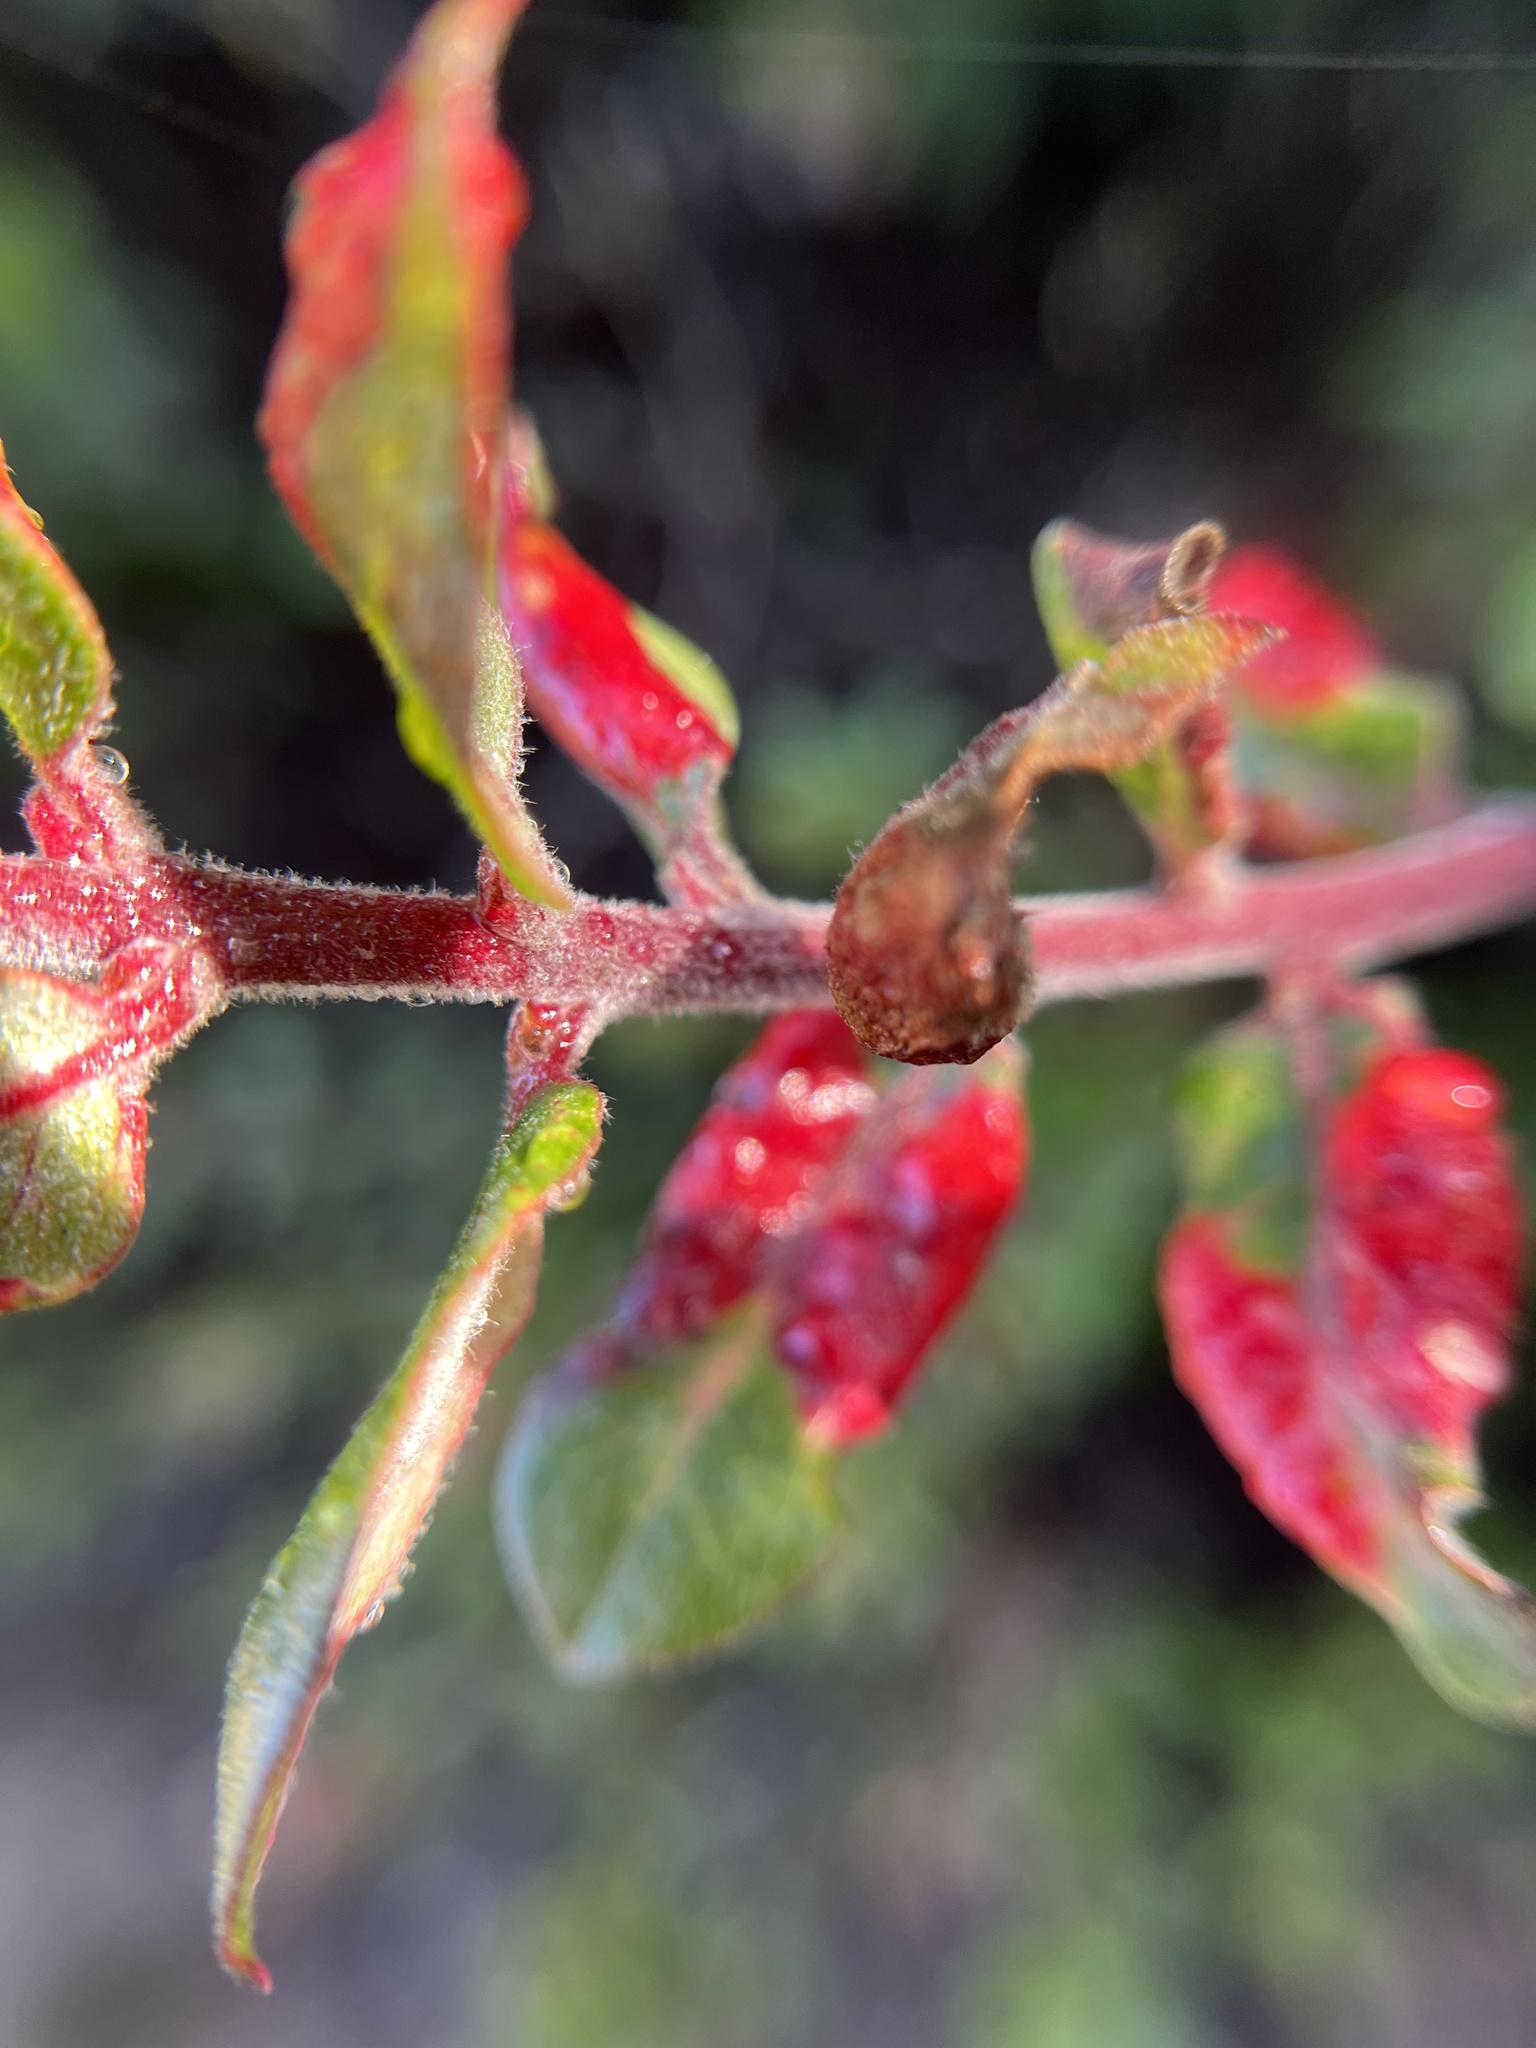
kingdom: Animalia
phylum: Arthropoda
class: Insecta
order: Hemiptera
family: Aphididae
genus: Tamalia
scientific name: Tamalia coweni
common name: Manzanita leafgall aphid
